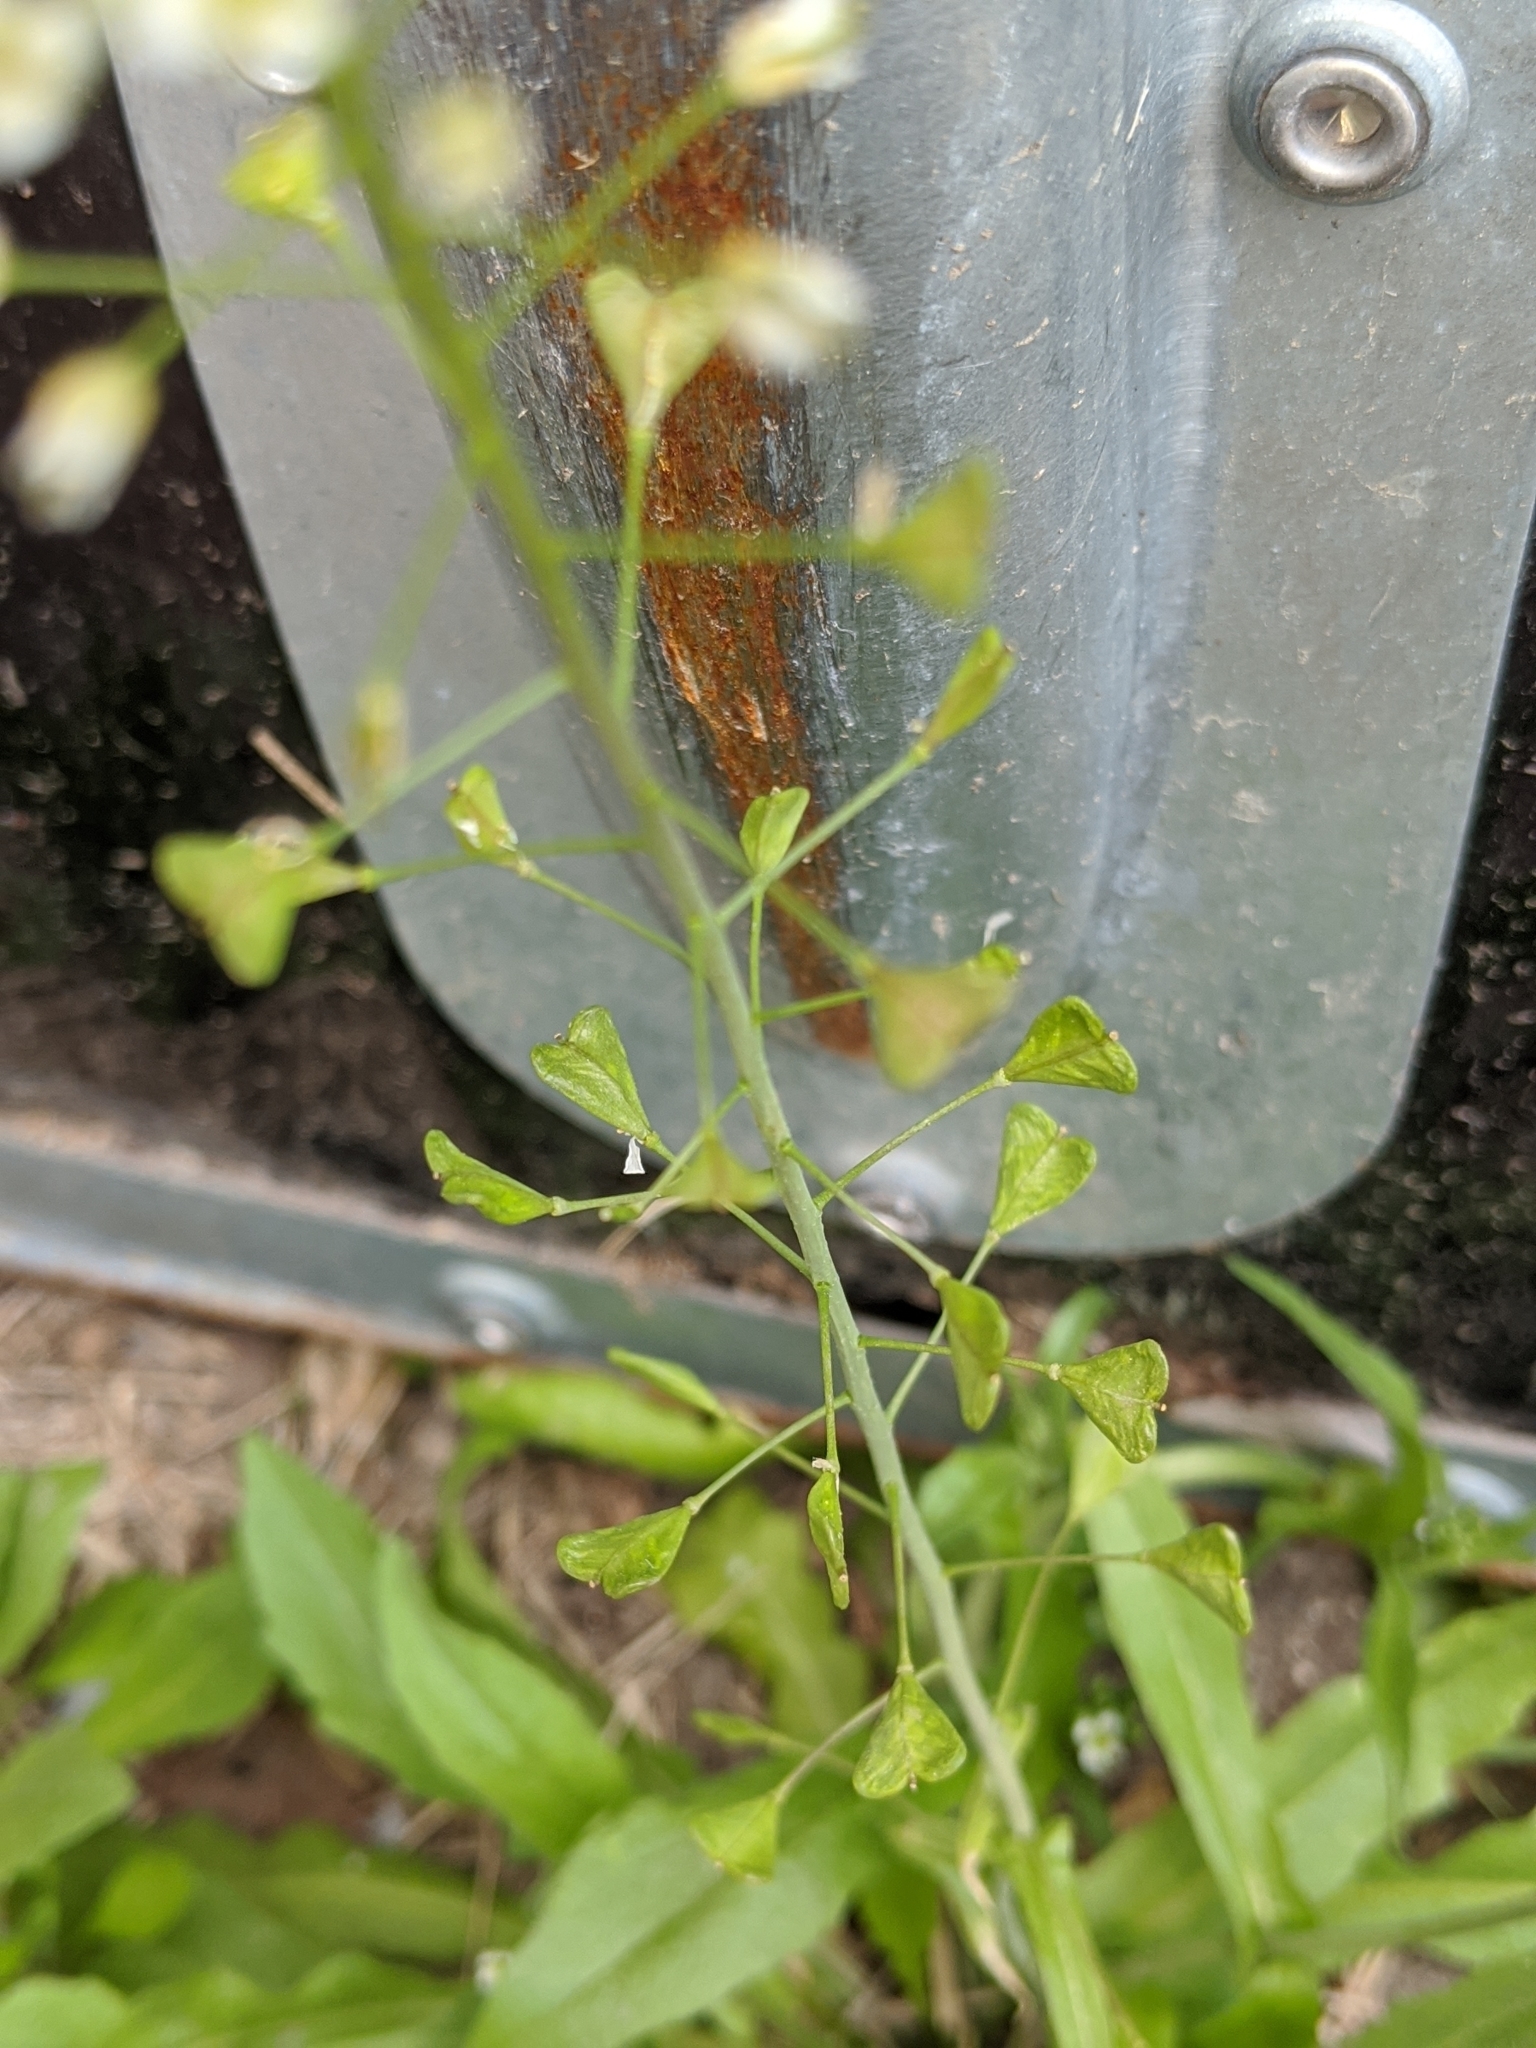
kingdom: Plantae
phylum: Tracheophyta
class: Magnoliopsida
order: Brassicales
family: Brassicaceae
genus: Capsella
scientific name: Capsella bursa-pastoris
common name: Shepherd's purse
